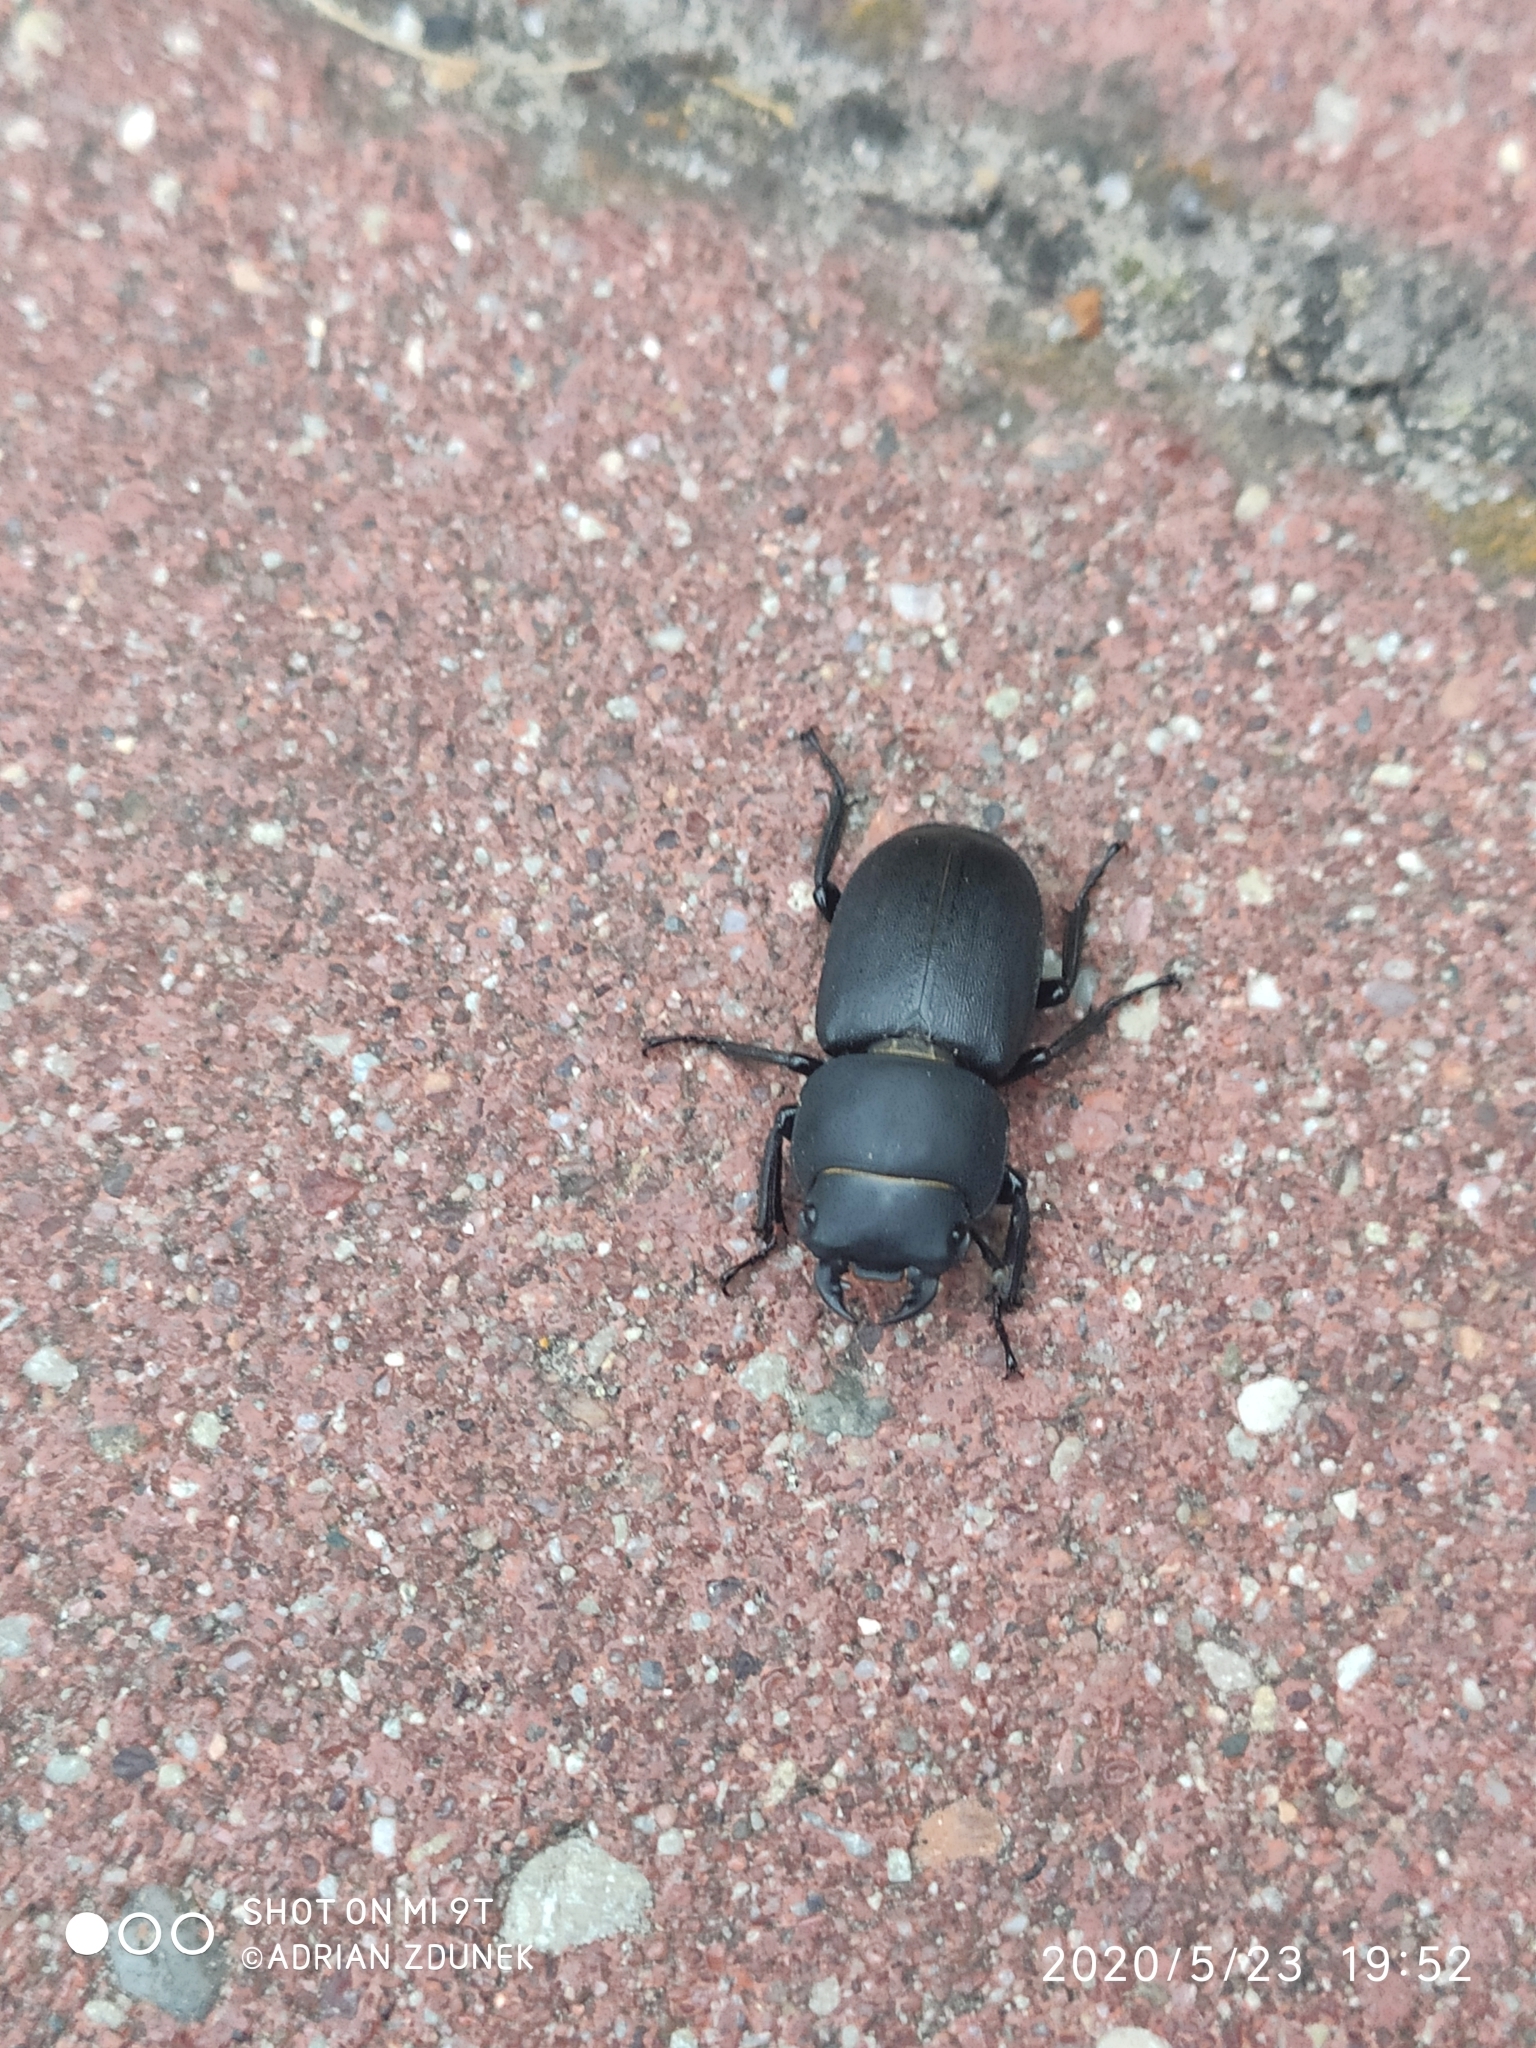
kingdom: Animalia
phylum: Arthropoda
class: Insecta
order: Coleoptera
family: Lucanidae
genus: Dorcus
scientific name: Dorcus parallelipipedus
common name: Lesser stag beetle
